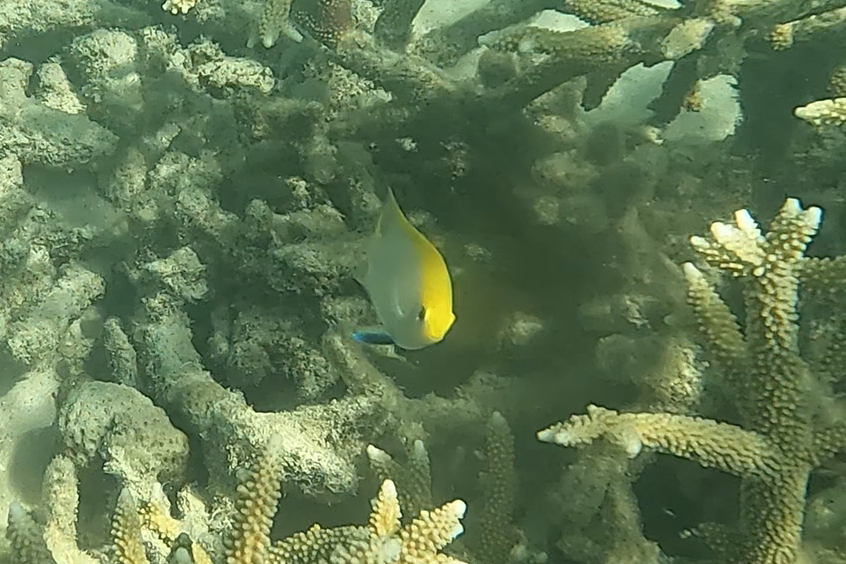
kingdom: Animalia
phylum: Chordata
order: Perciformes
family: Pomacentridae
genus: Neoglyphidodon
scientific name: Neoglyphidodon melas
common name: Black damsel
